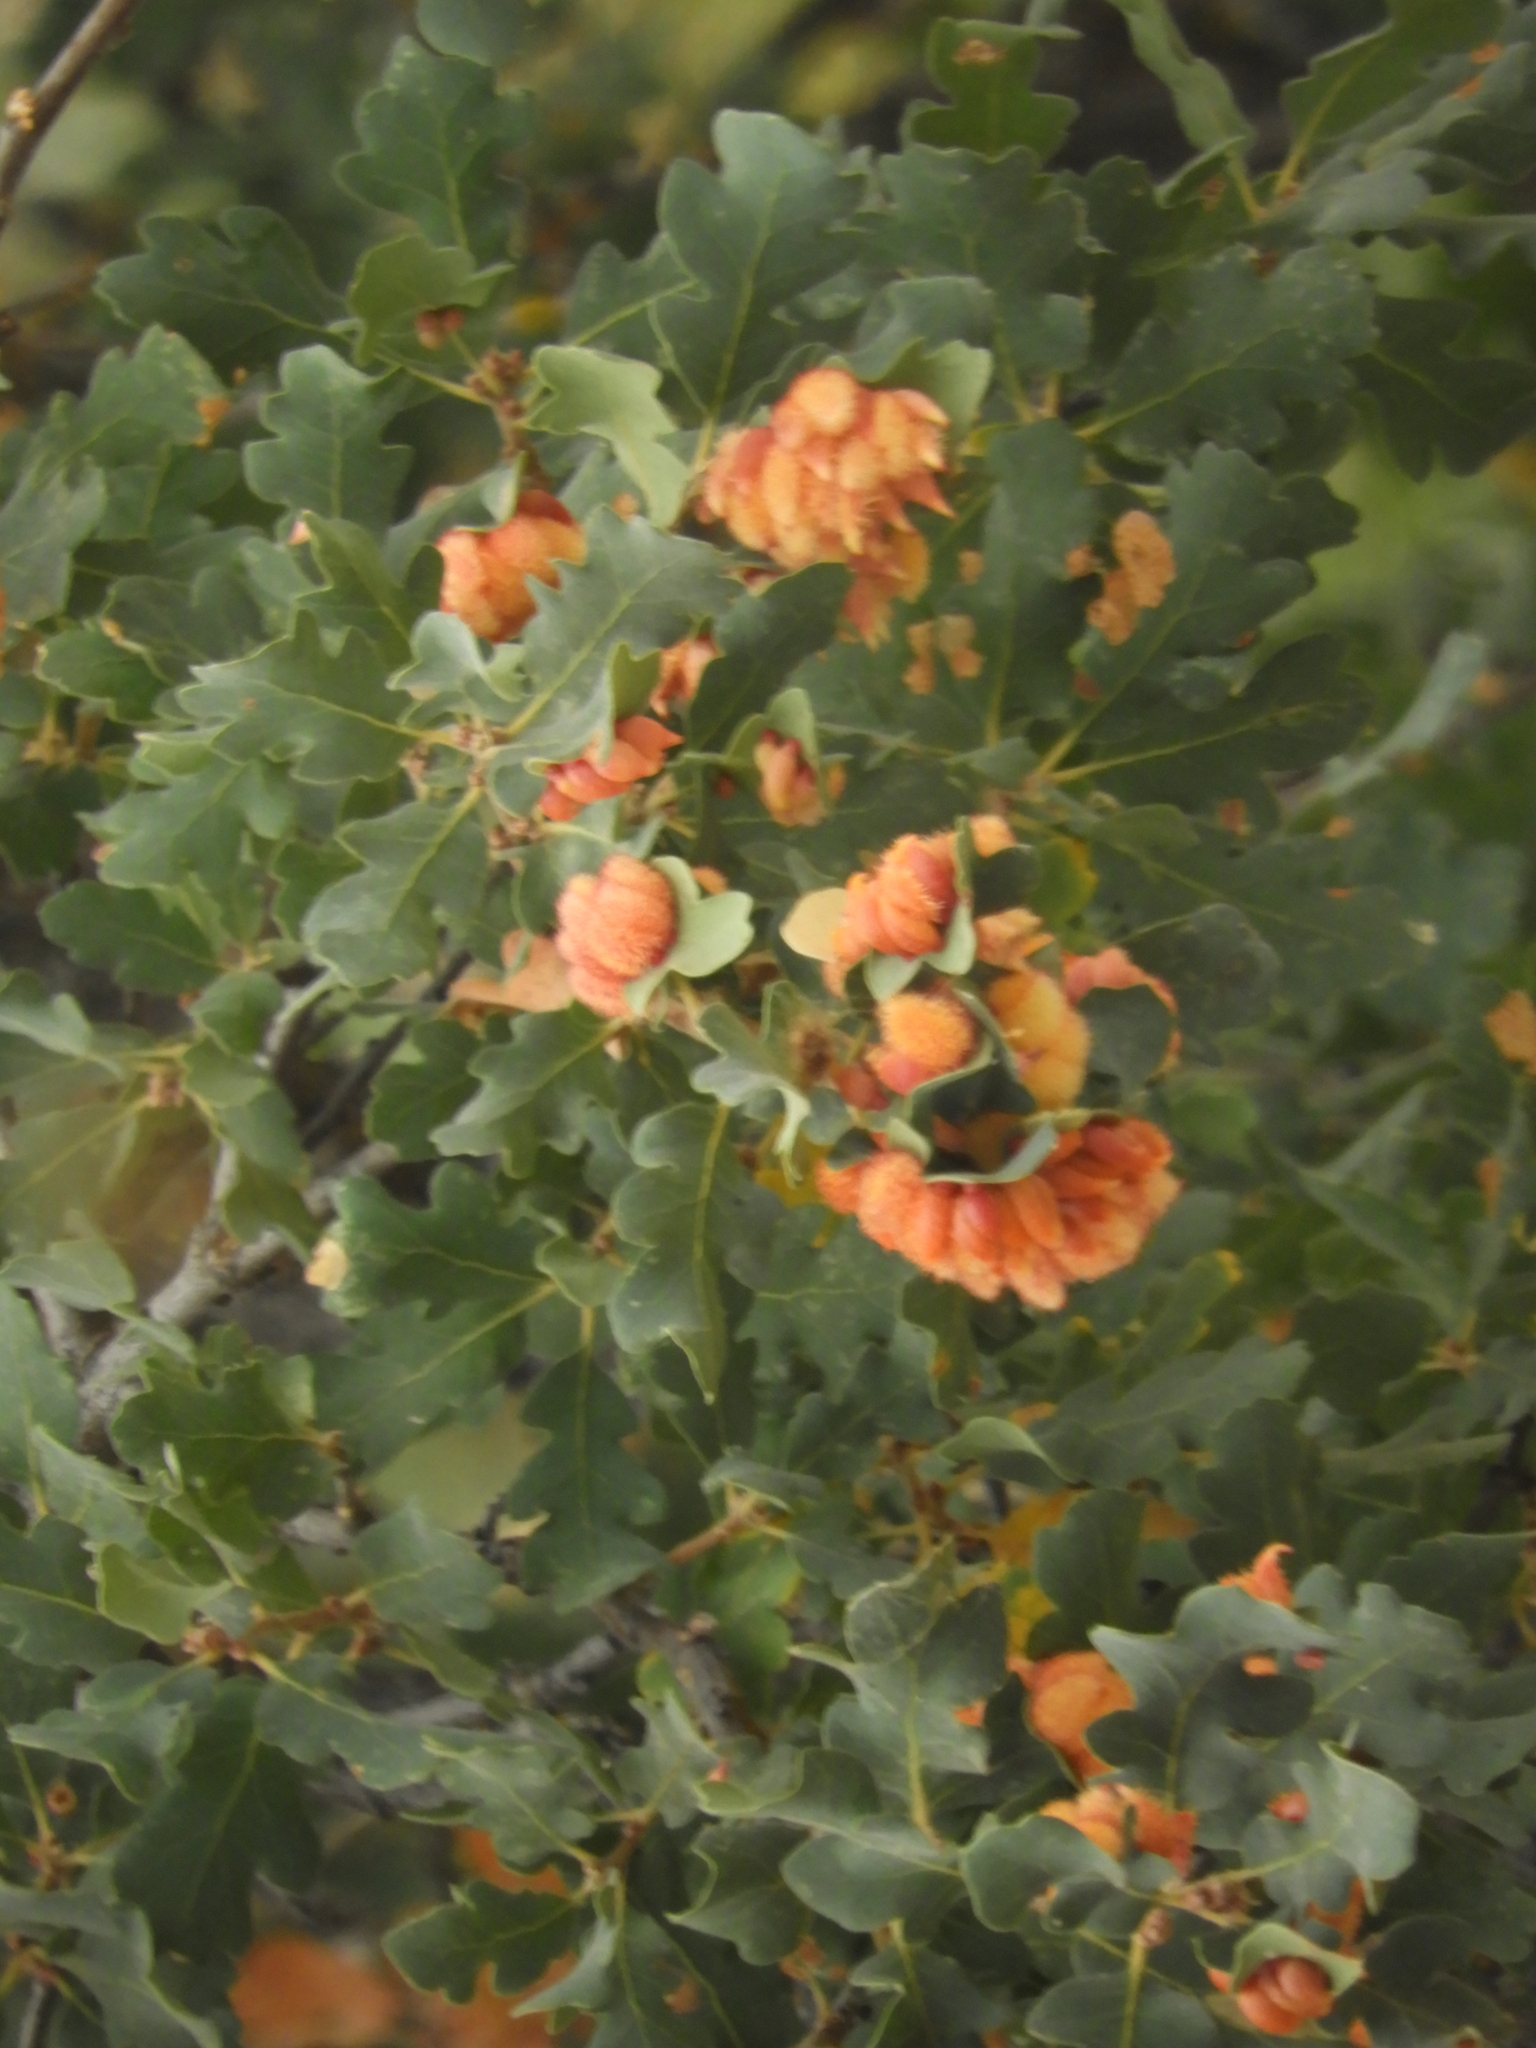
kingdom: Animalia
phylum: Arthropoda
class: Insecta
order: Hymenoptera
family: Cynipidae
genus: Andricus
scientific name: Andricus
